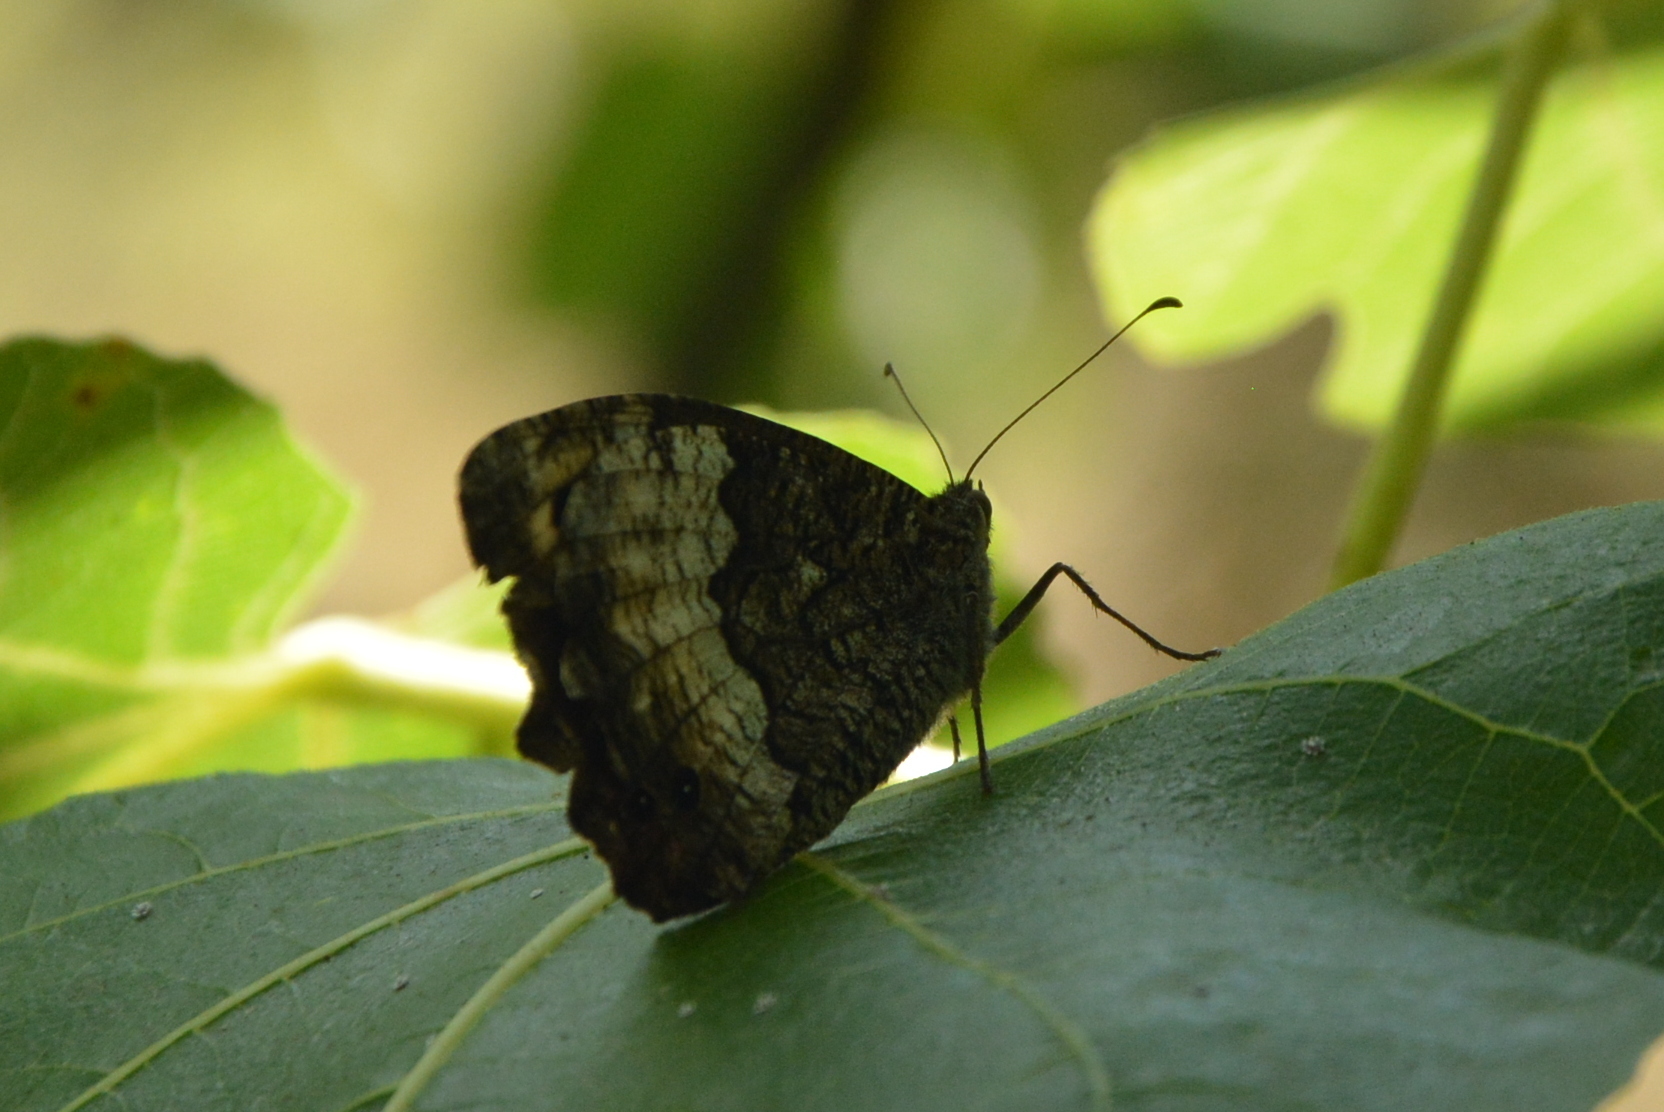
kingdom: Animalia
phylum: Arthropoda
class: Insecta
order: Lepidoptera
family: Nymphalidae
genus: Hipparchia
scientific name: Hipparchia fagi
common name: Woodland grayling
